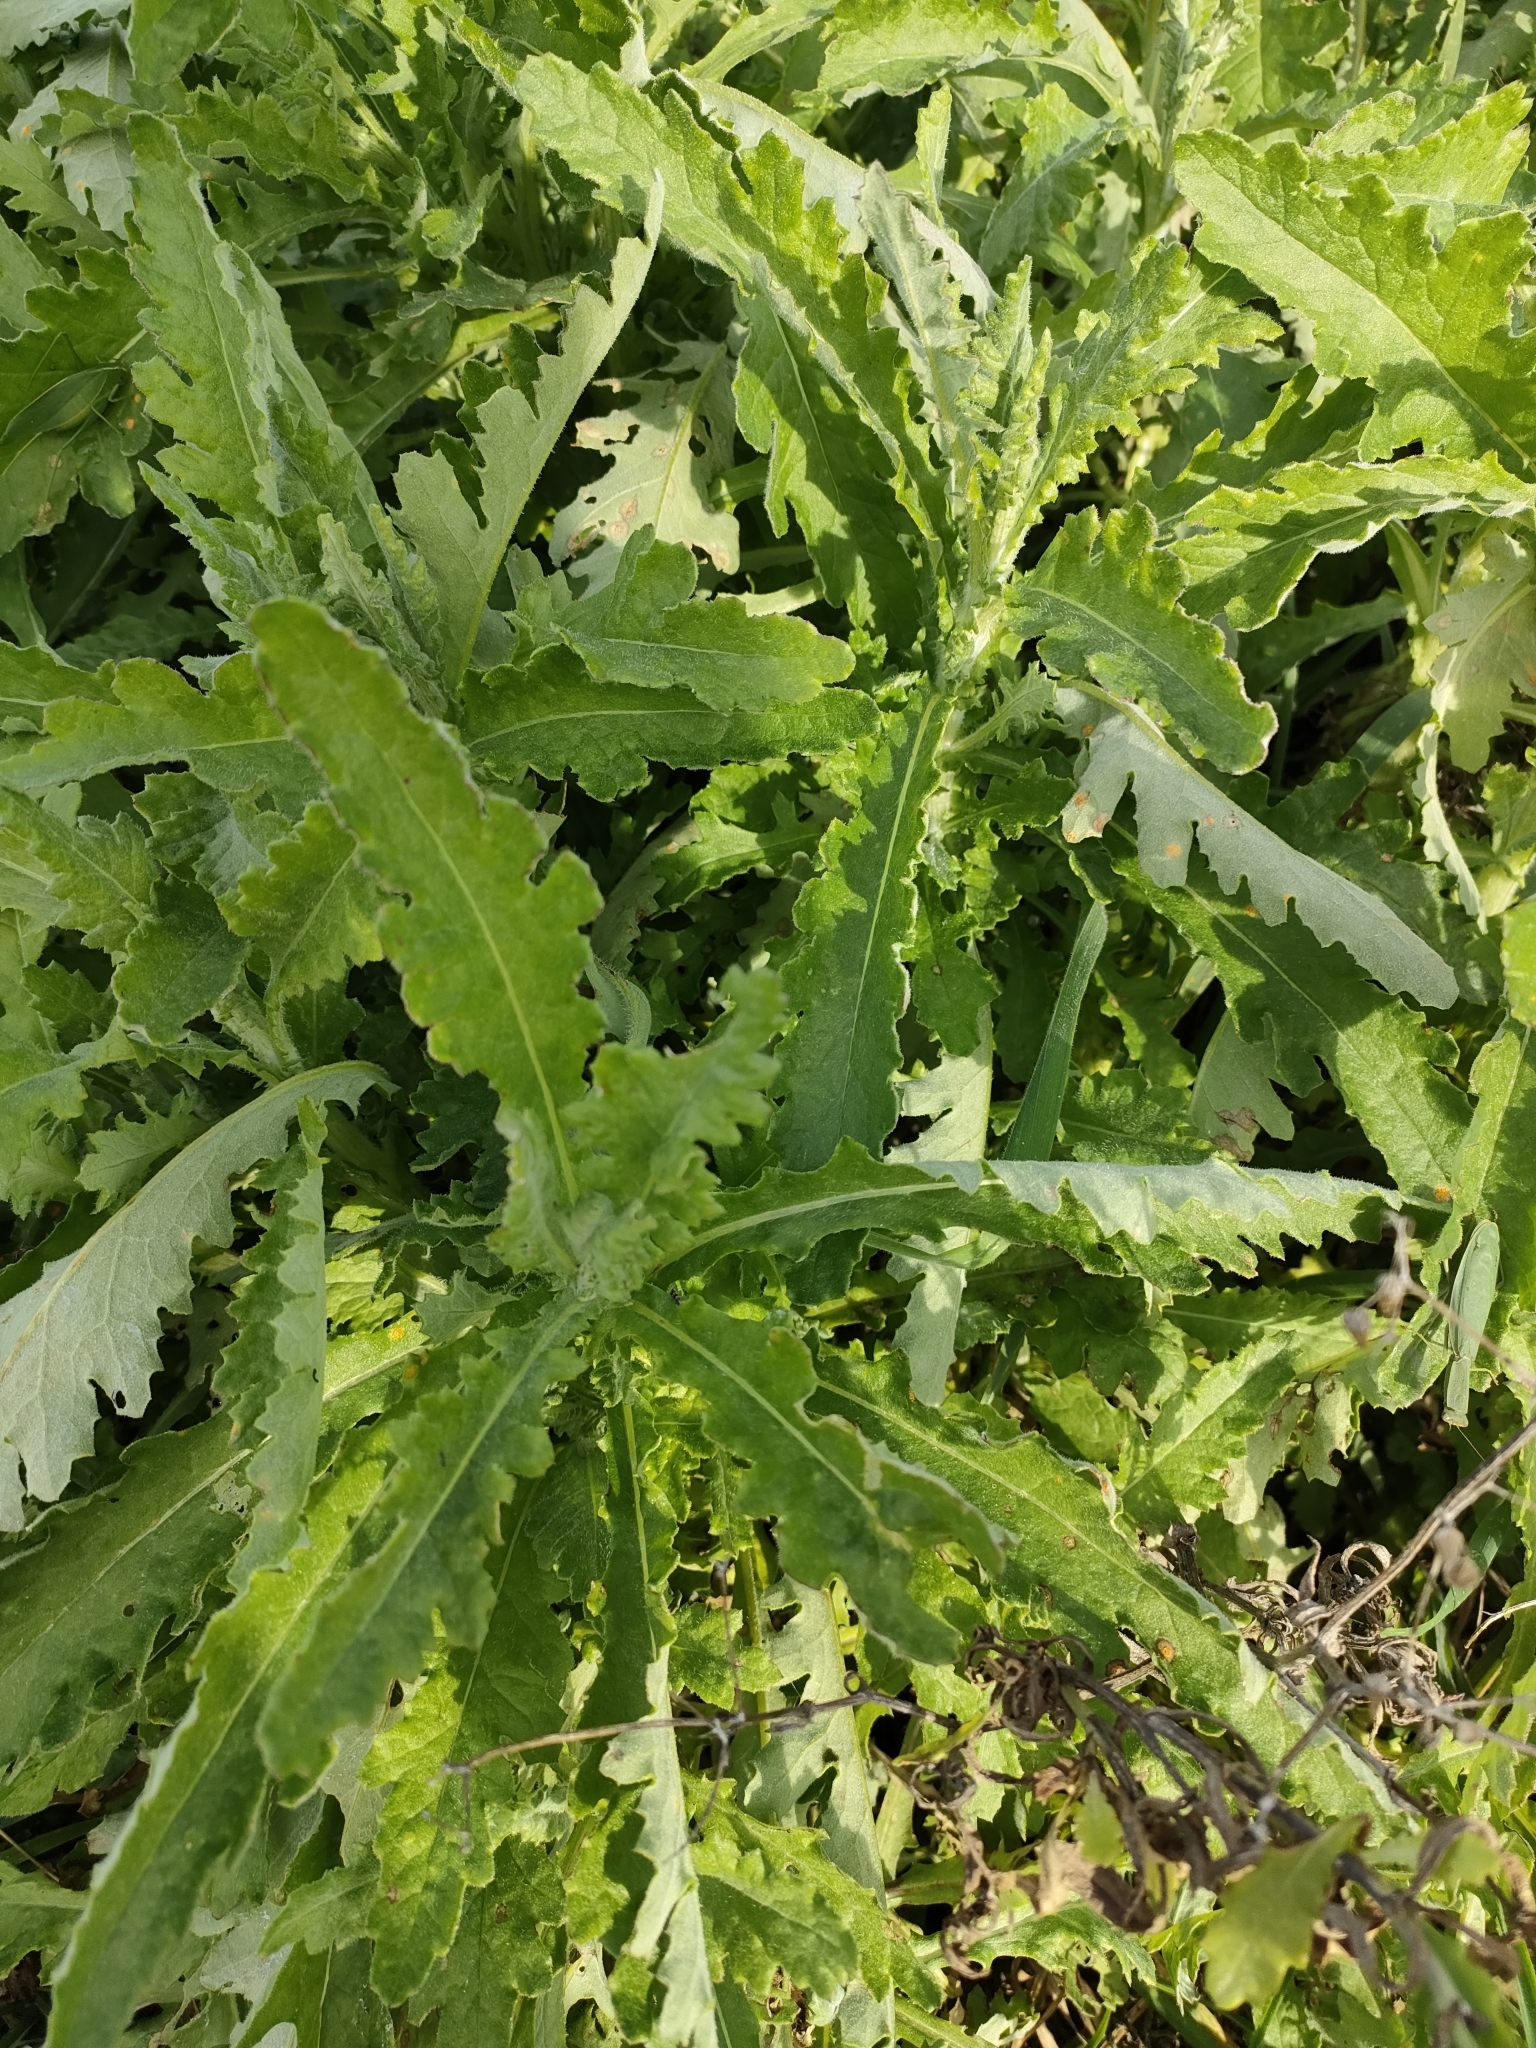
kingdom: Plantae
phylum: Tracheophyta
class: Magnoliopsida
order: Asterales
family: Asteraceae
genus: Senecio
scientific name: Senecio glomeratus
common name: Cutleaf burnweed
